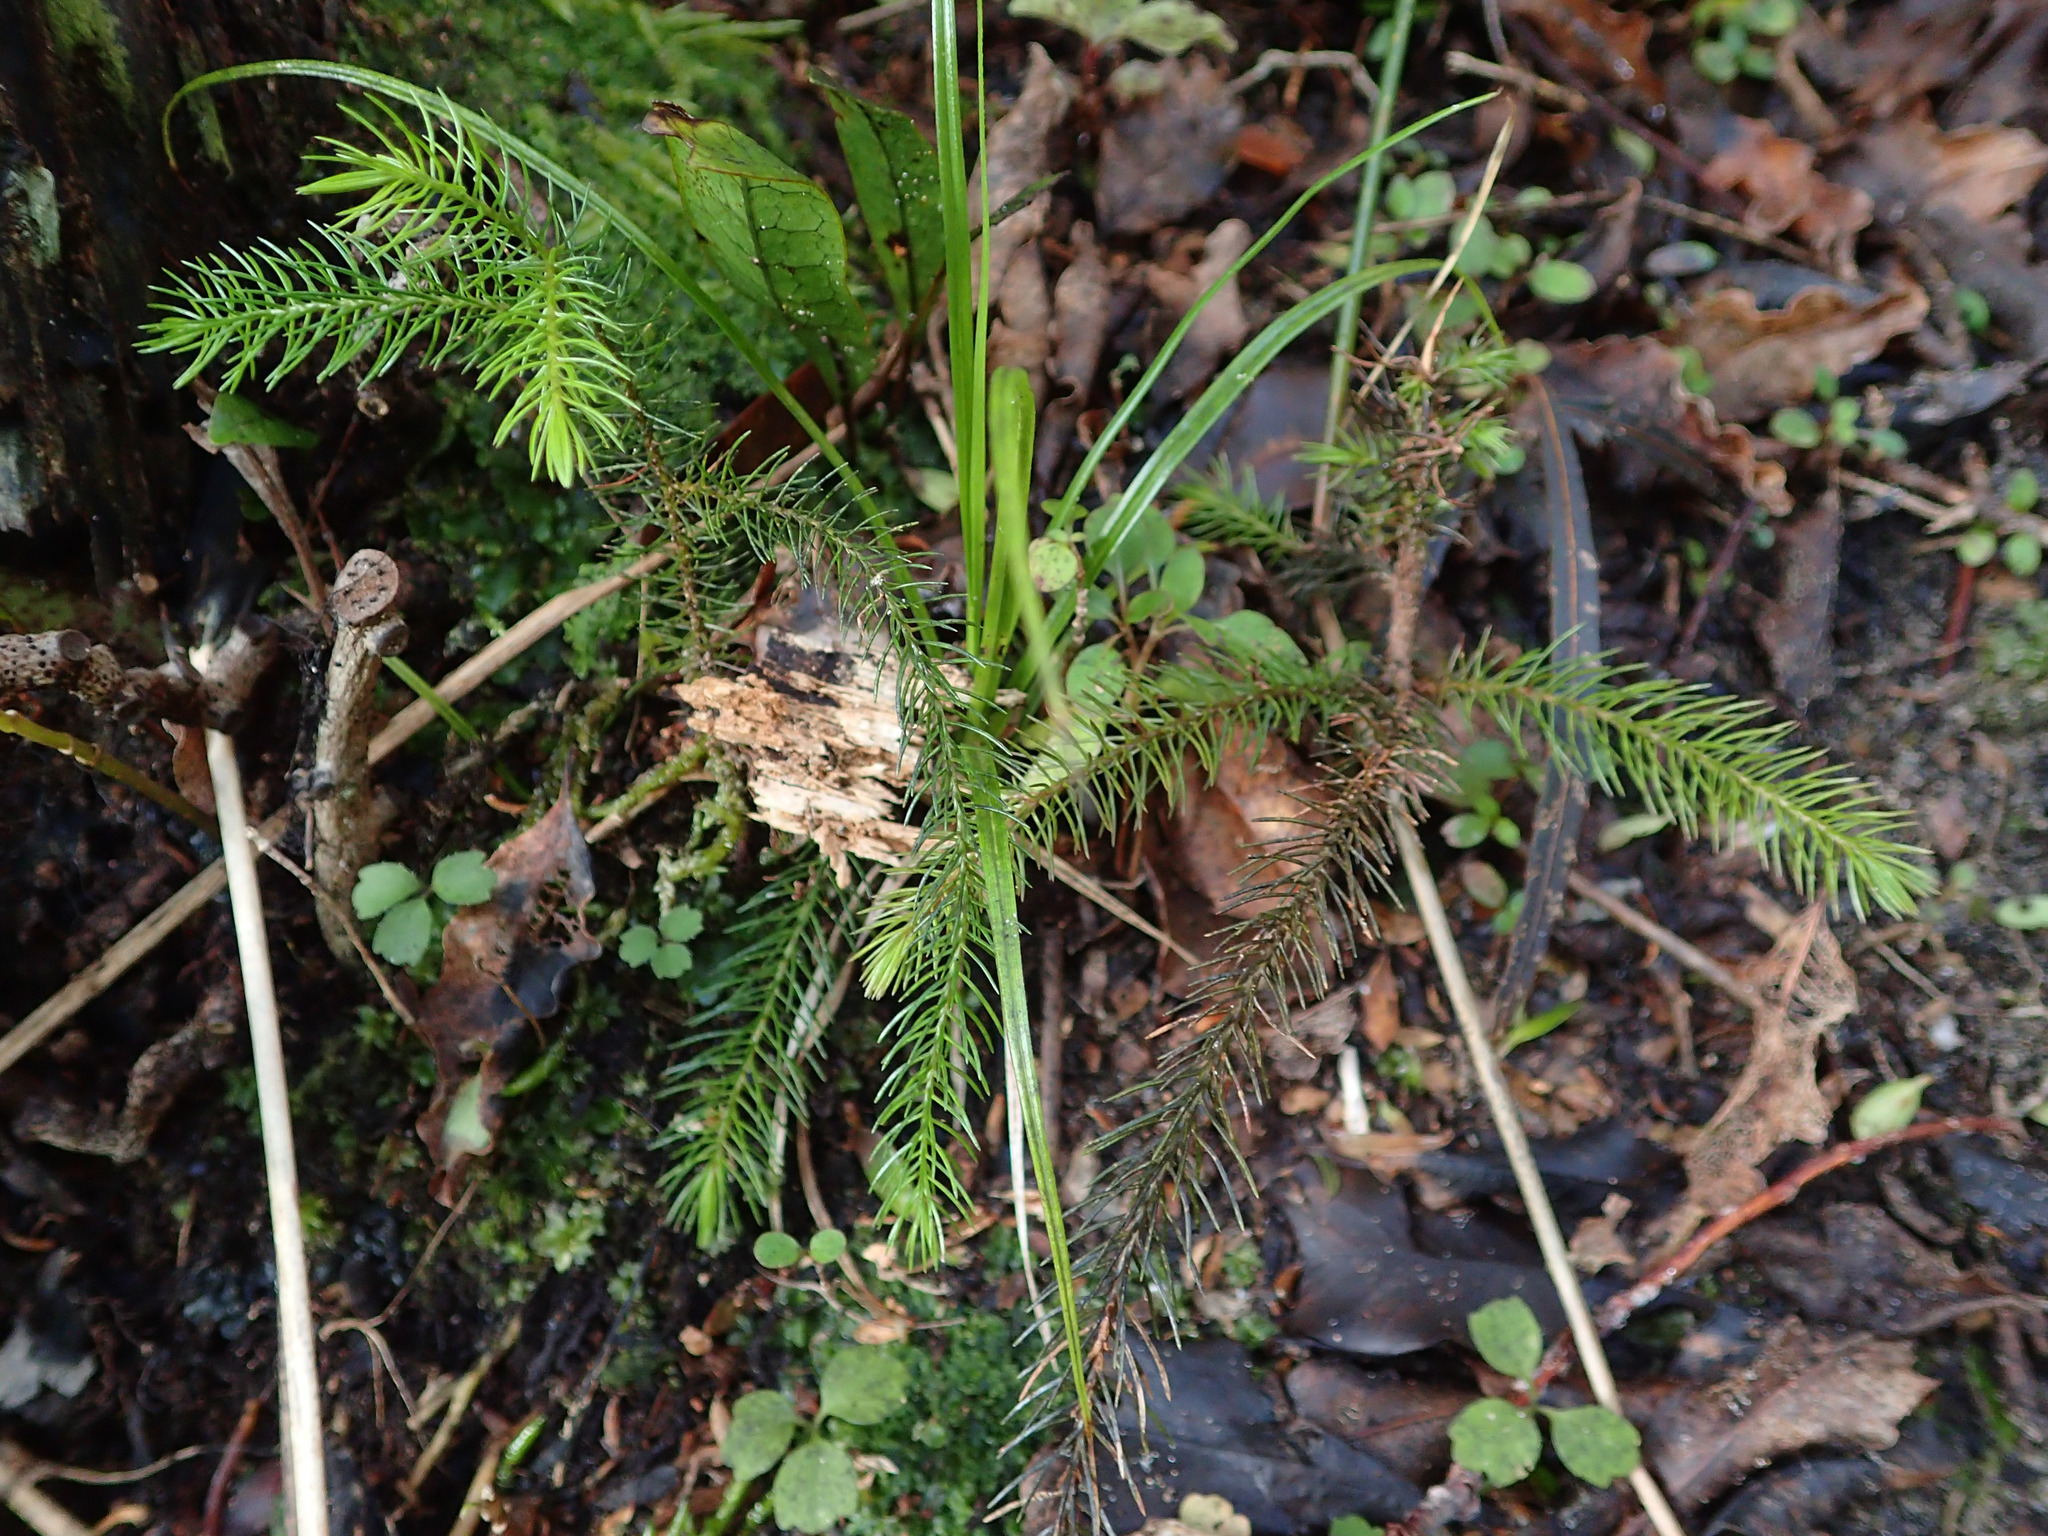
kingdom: Plantae
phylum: Tracheophyta
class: Pinopsida
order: Pinales
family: Podocarpaceae
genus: Dacrydium
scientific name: Dacrydium cupressinum
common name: Red pine
